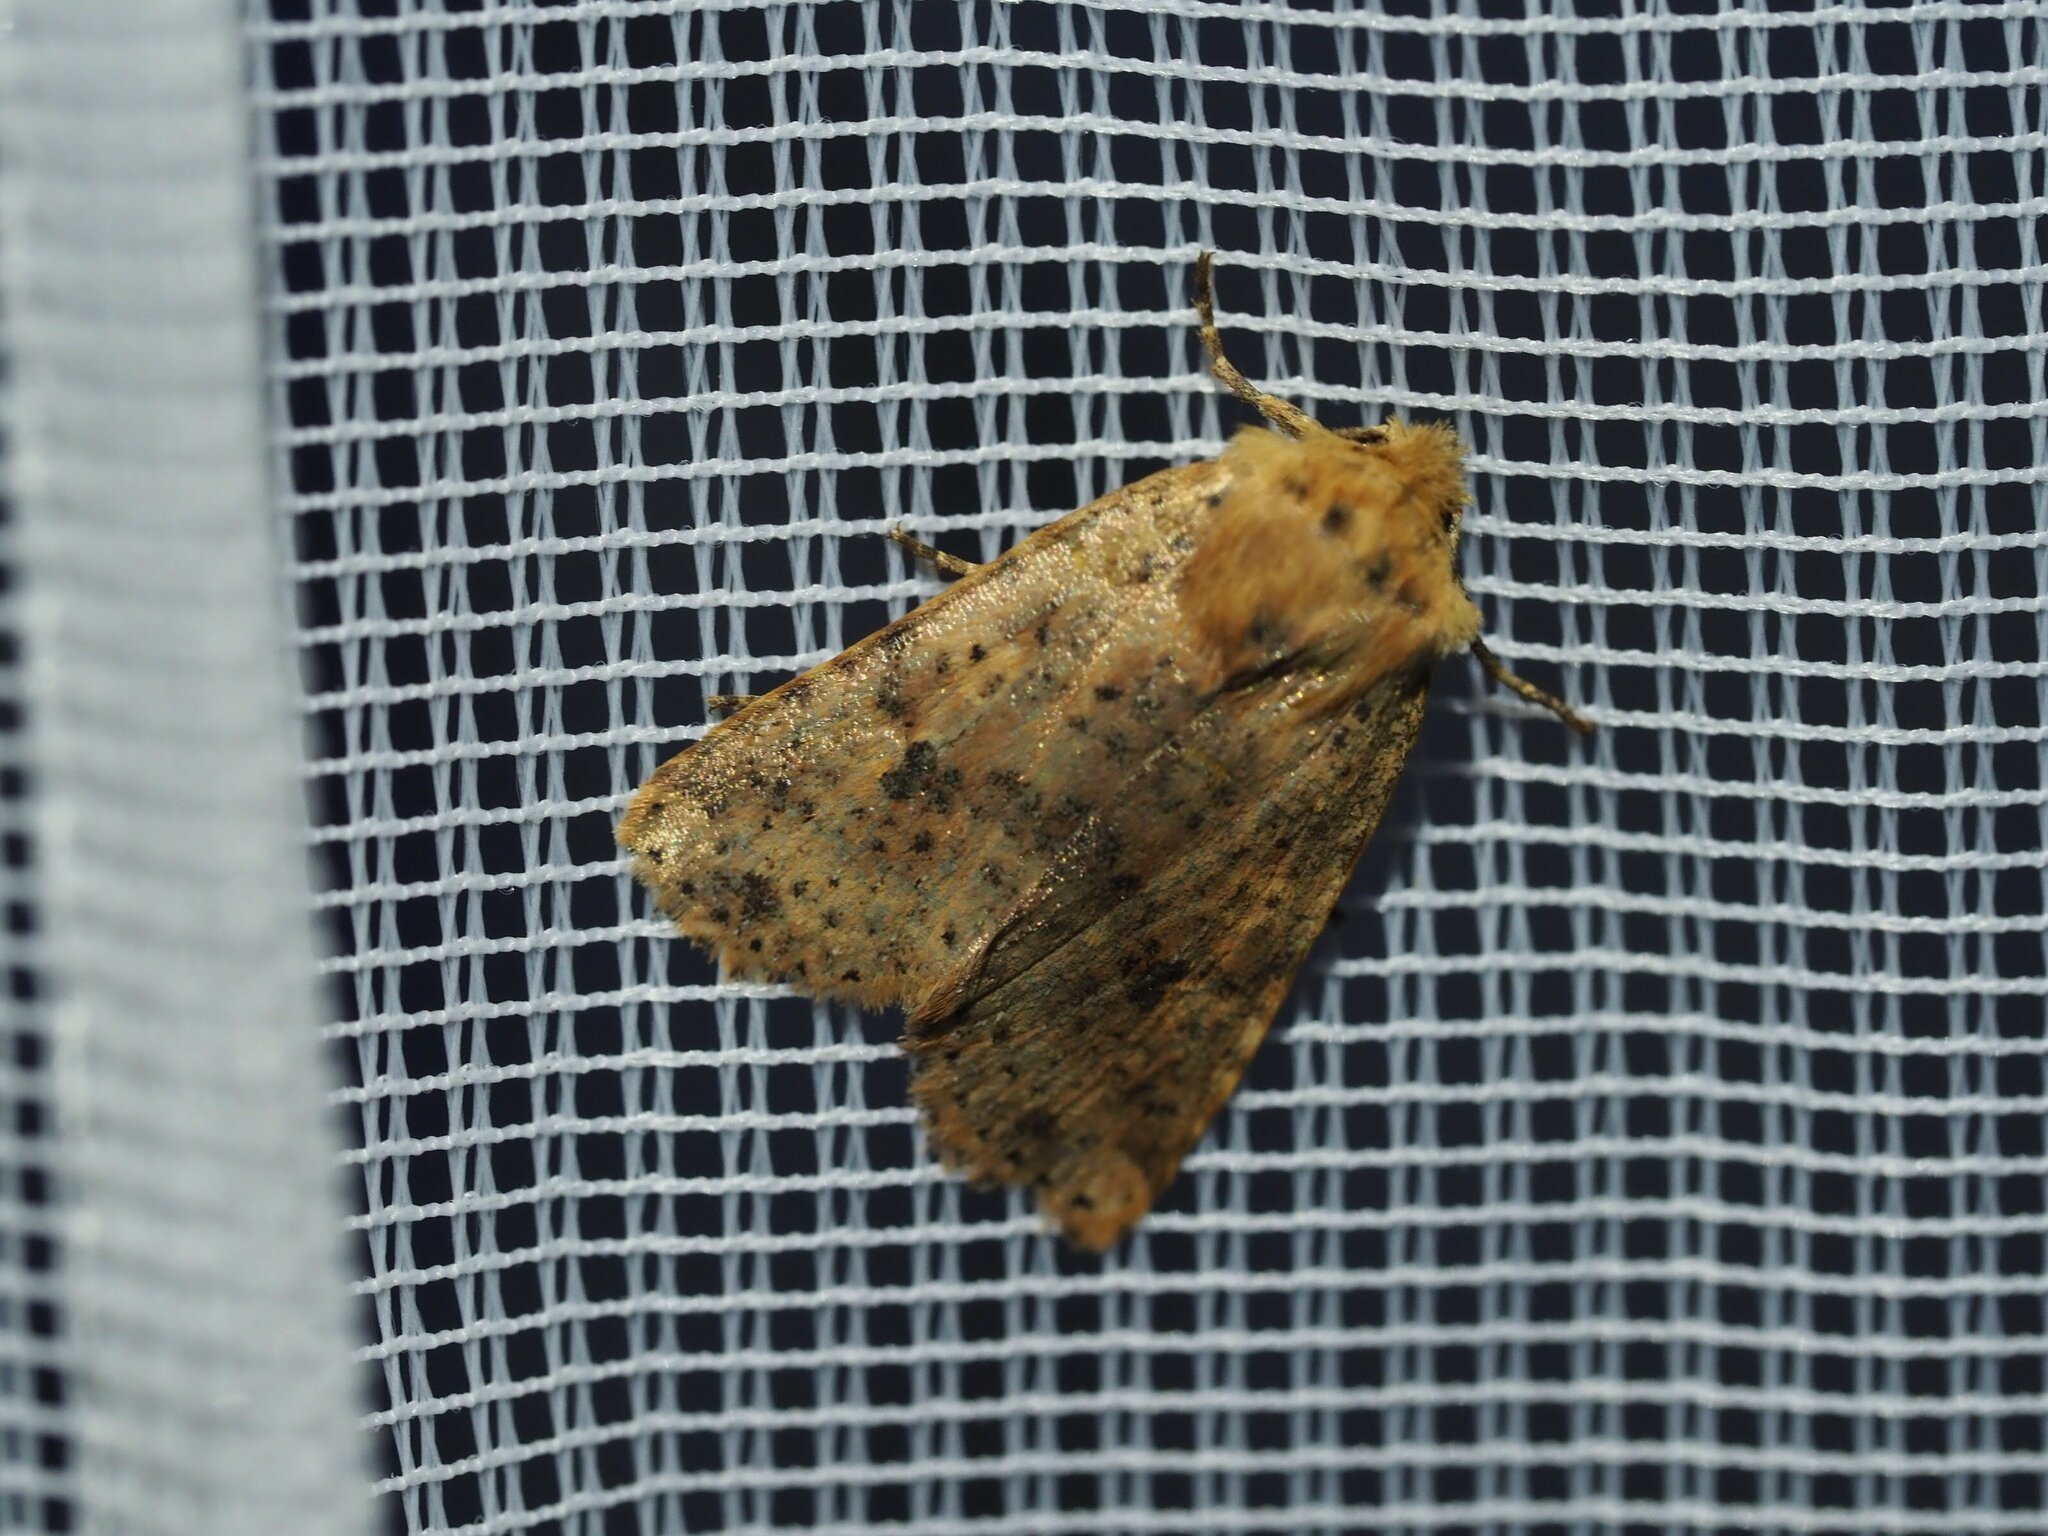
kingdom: Animalia
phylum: Arthropoda
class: Insecta
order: Lepidoptera
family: Noctuidae
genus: Conistra
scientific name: Conistra rubiginea
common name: Dotted chestnut
